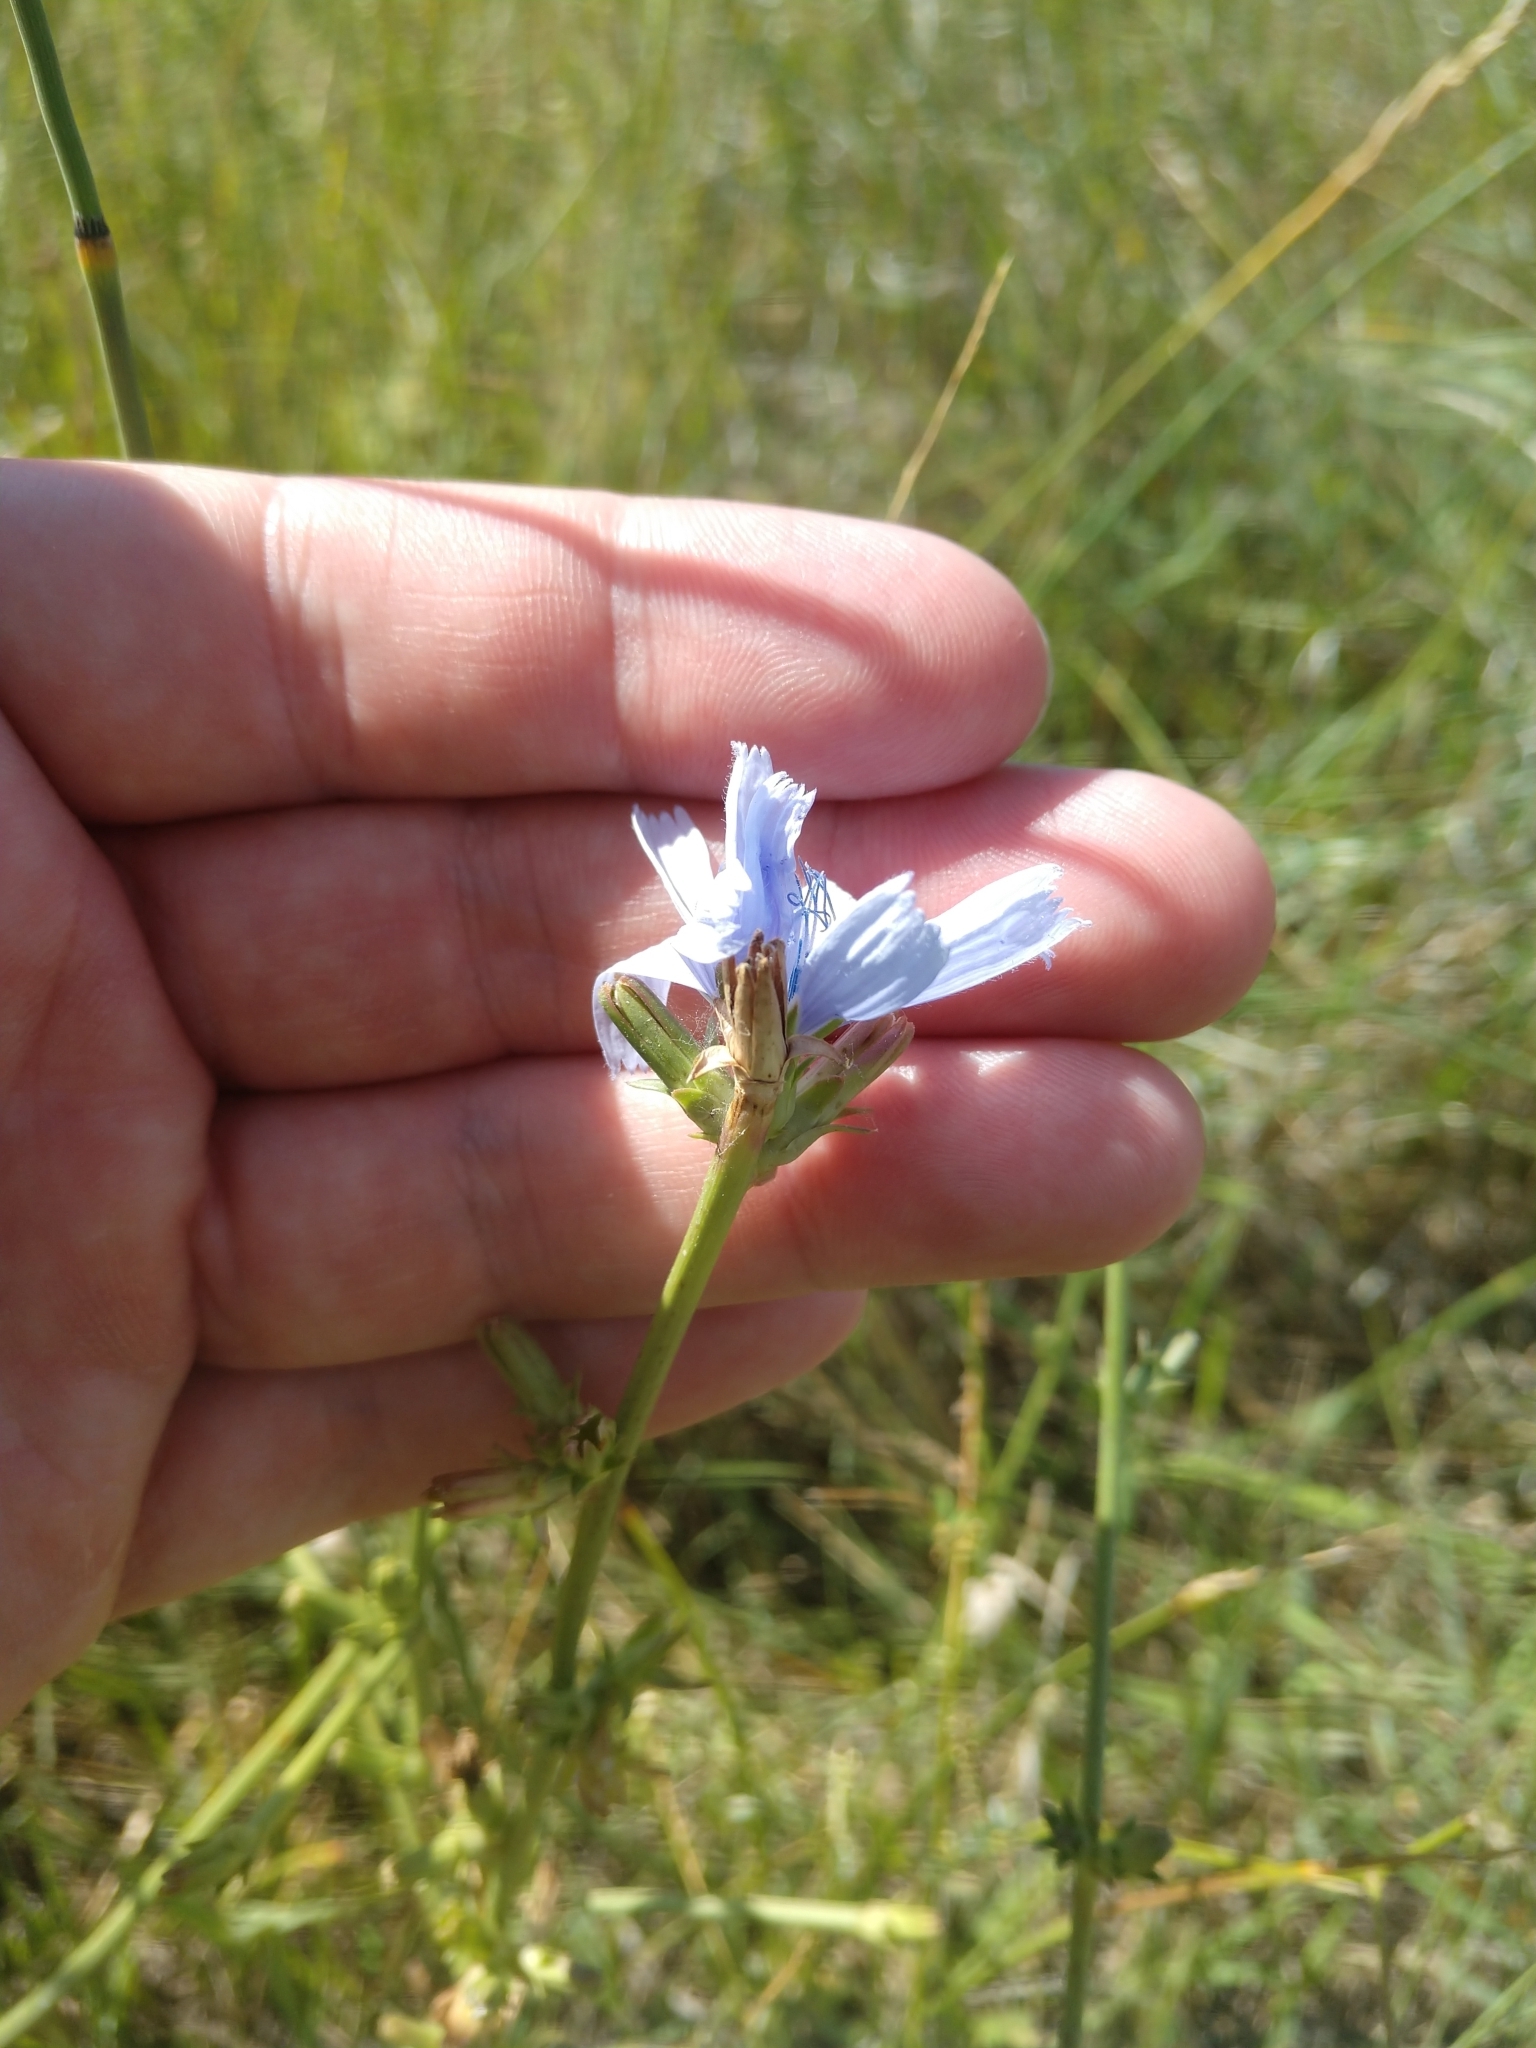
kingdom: Plantae
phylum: Tracheophyta
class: Magnoliopsida
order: Asterales
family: Asteraceae
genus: Cichorium
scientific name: Cichorium intybus
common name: Chicory
